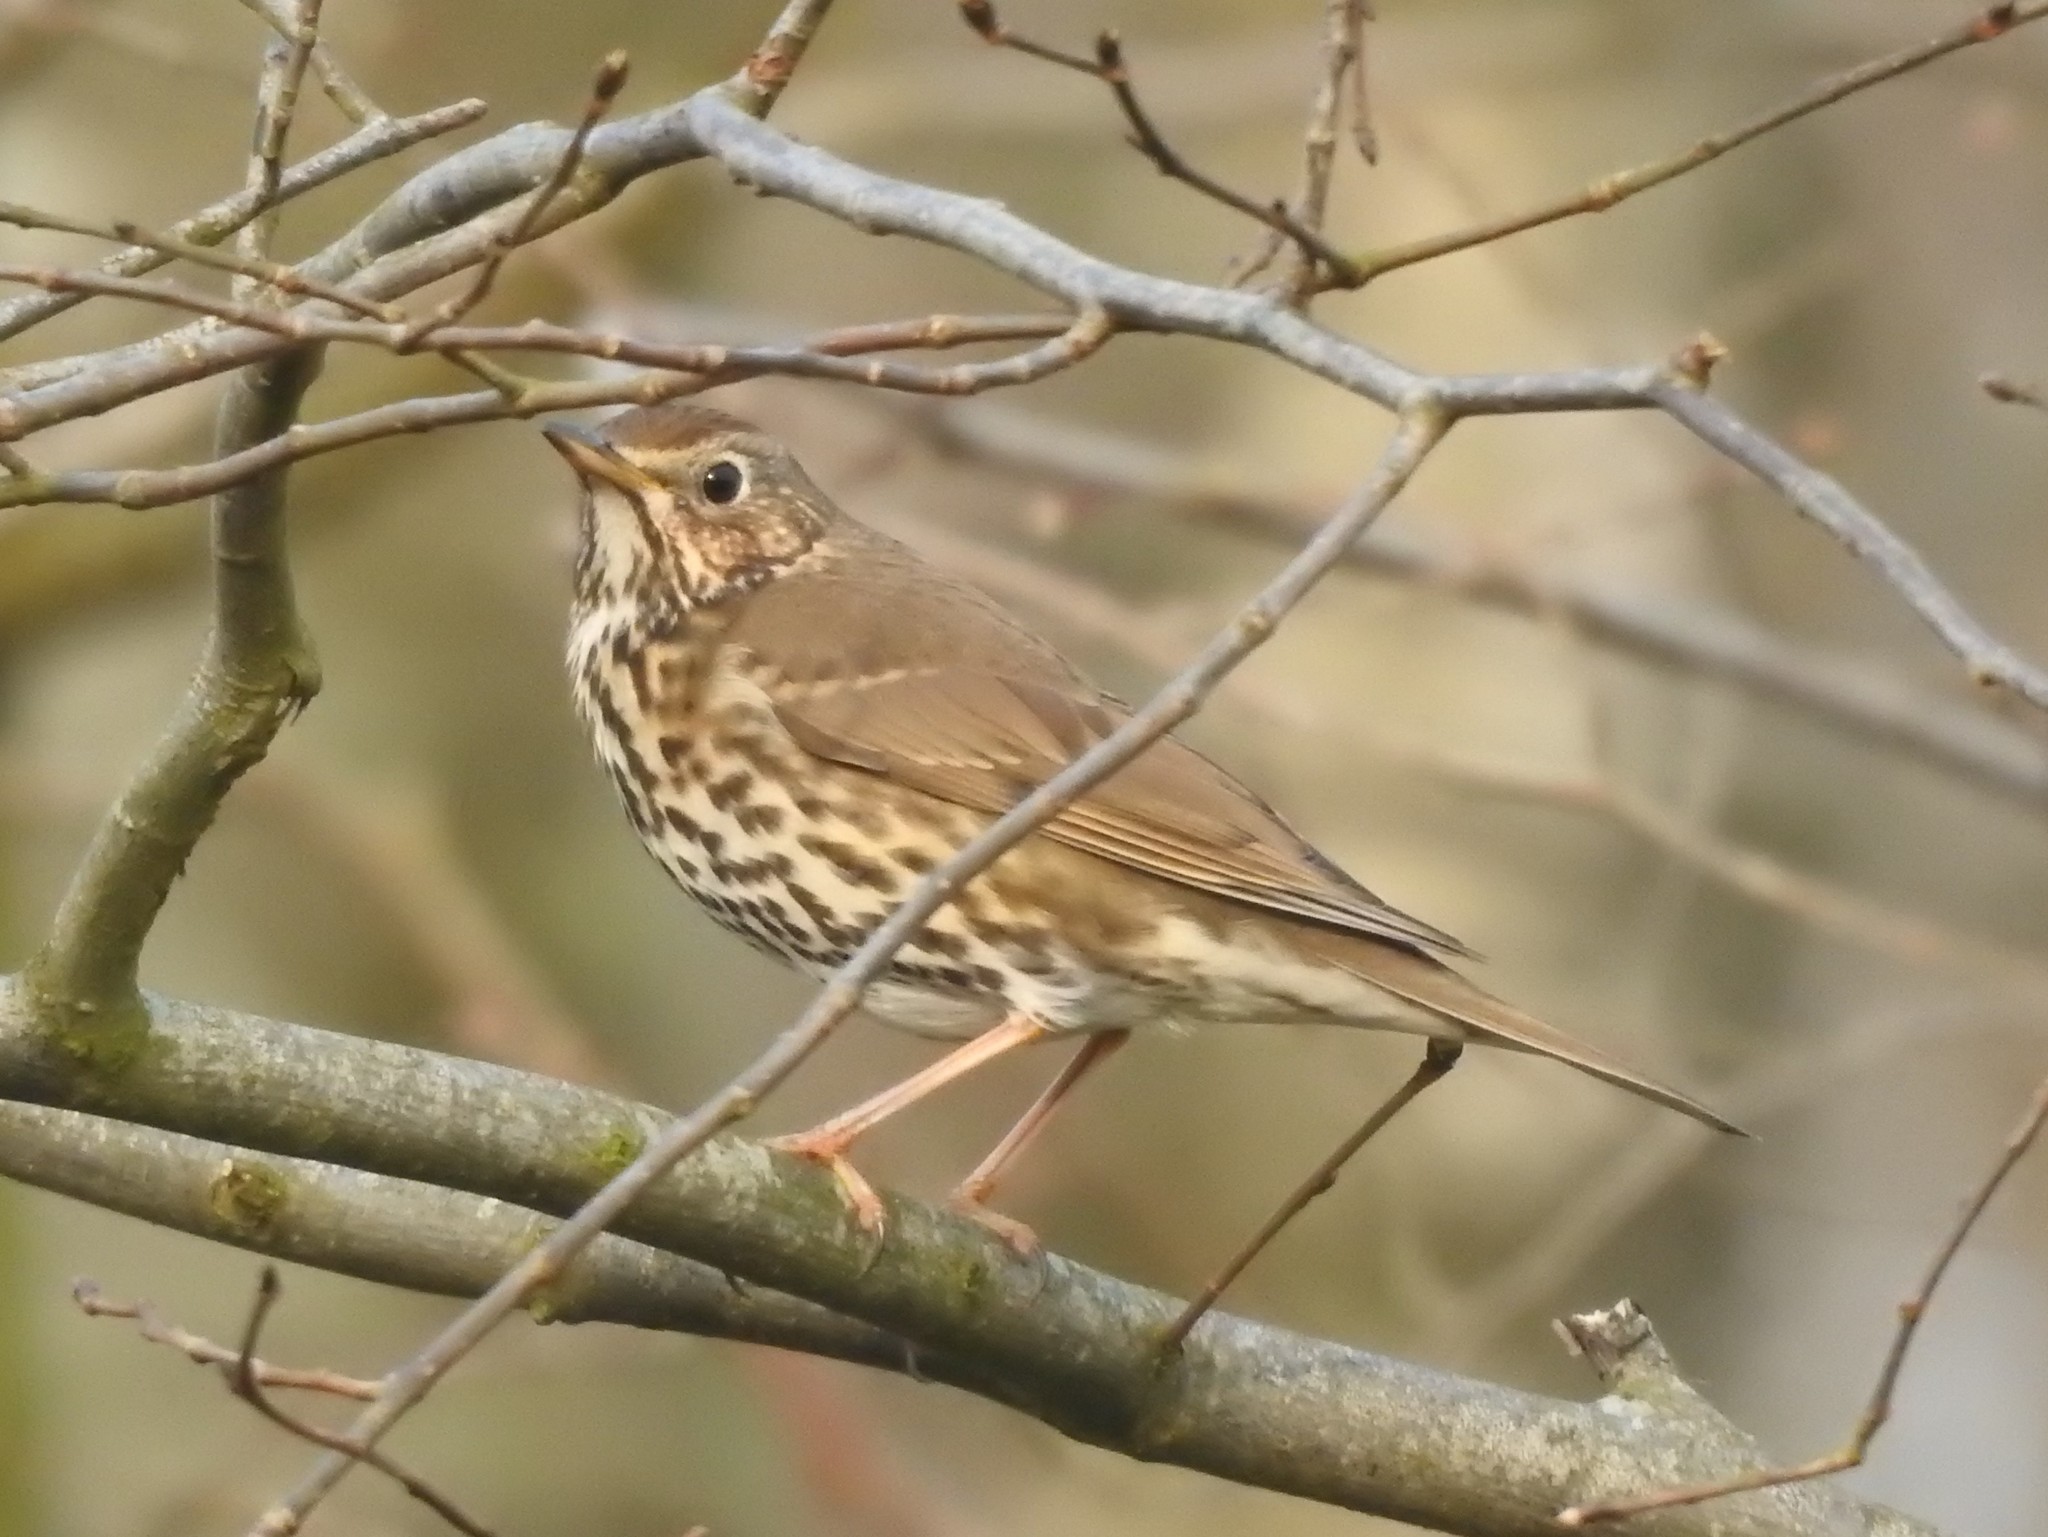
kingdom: Animalia
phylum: Chordata
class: Aves
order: Passeriformes
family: Turdidae
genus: Turdus
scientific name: Turdus philomelos
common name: Song thrush
